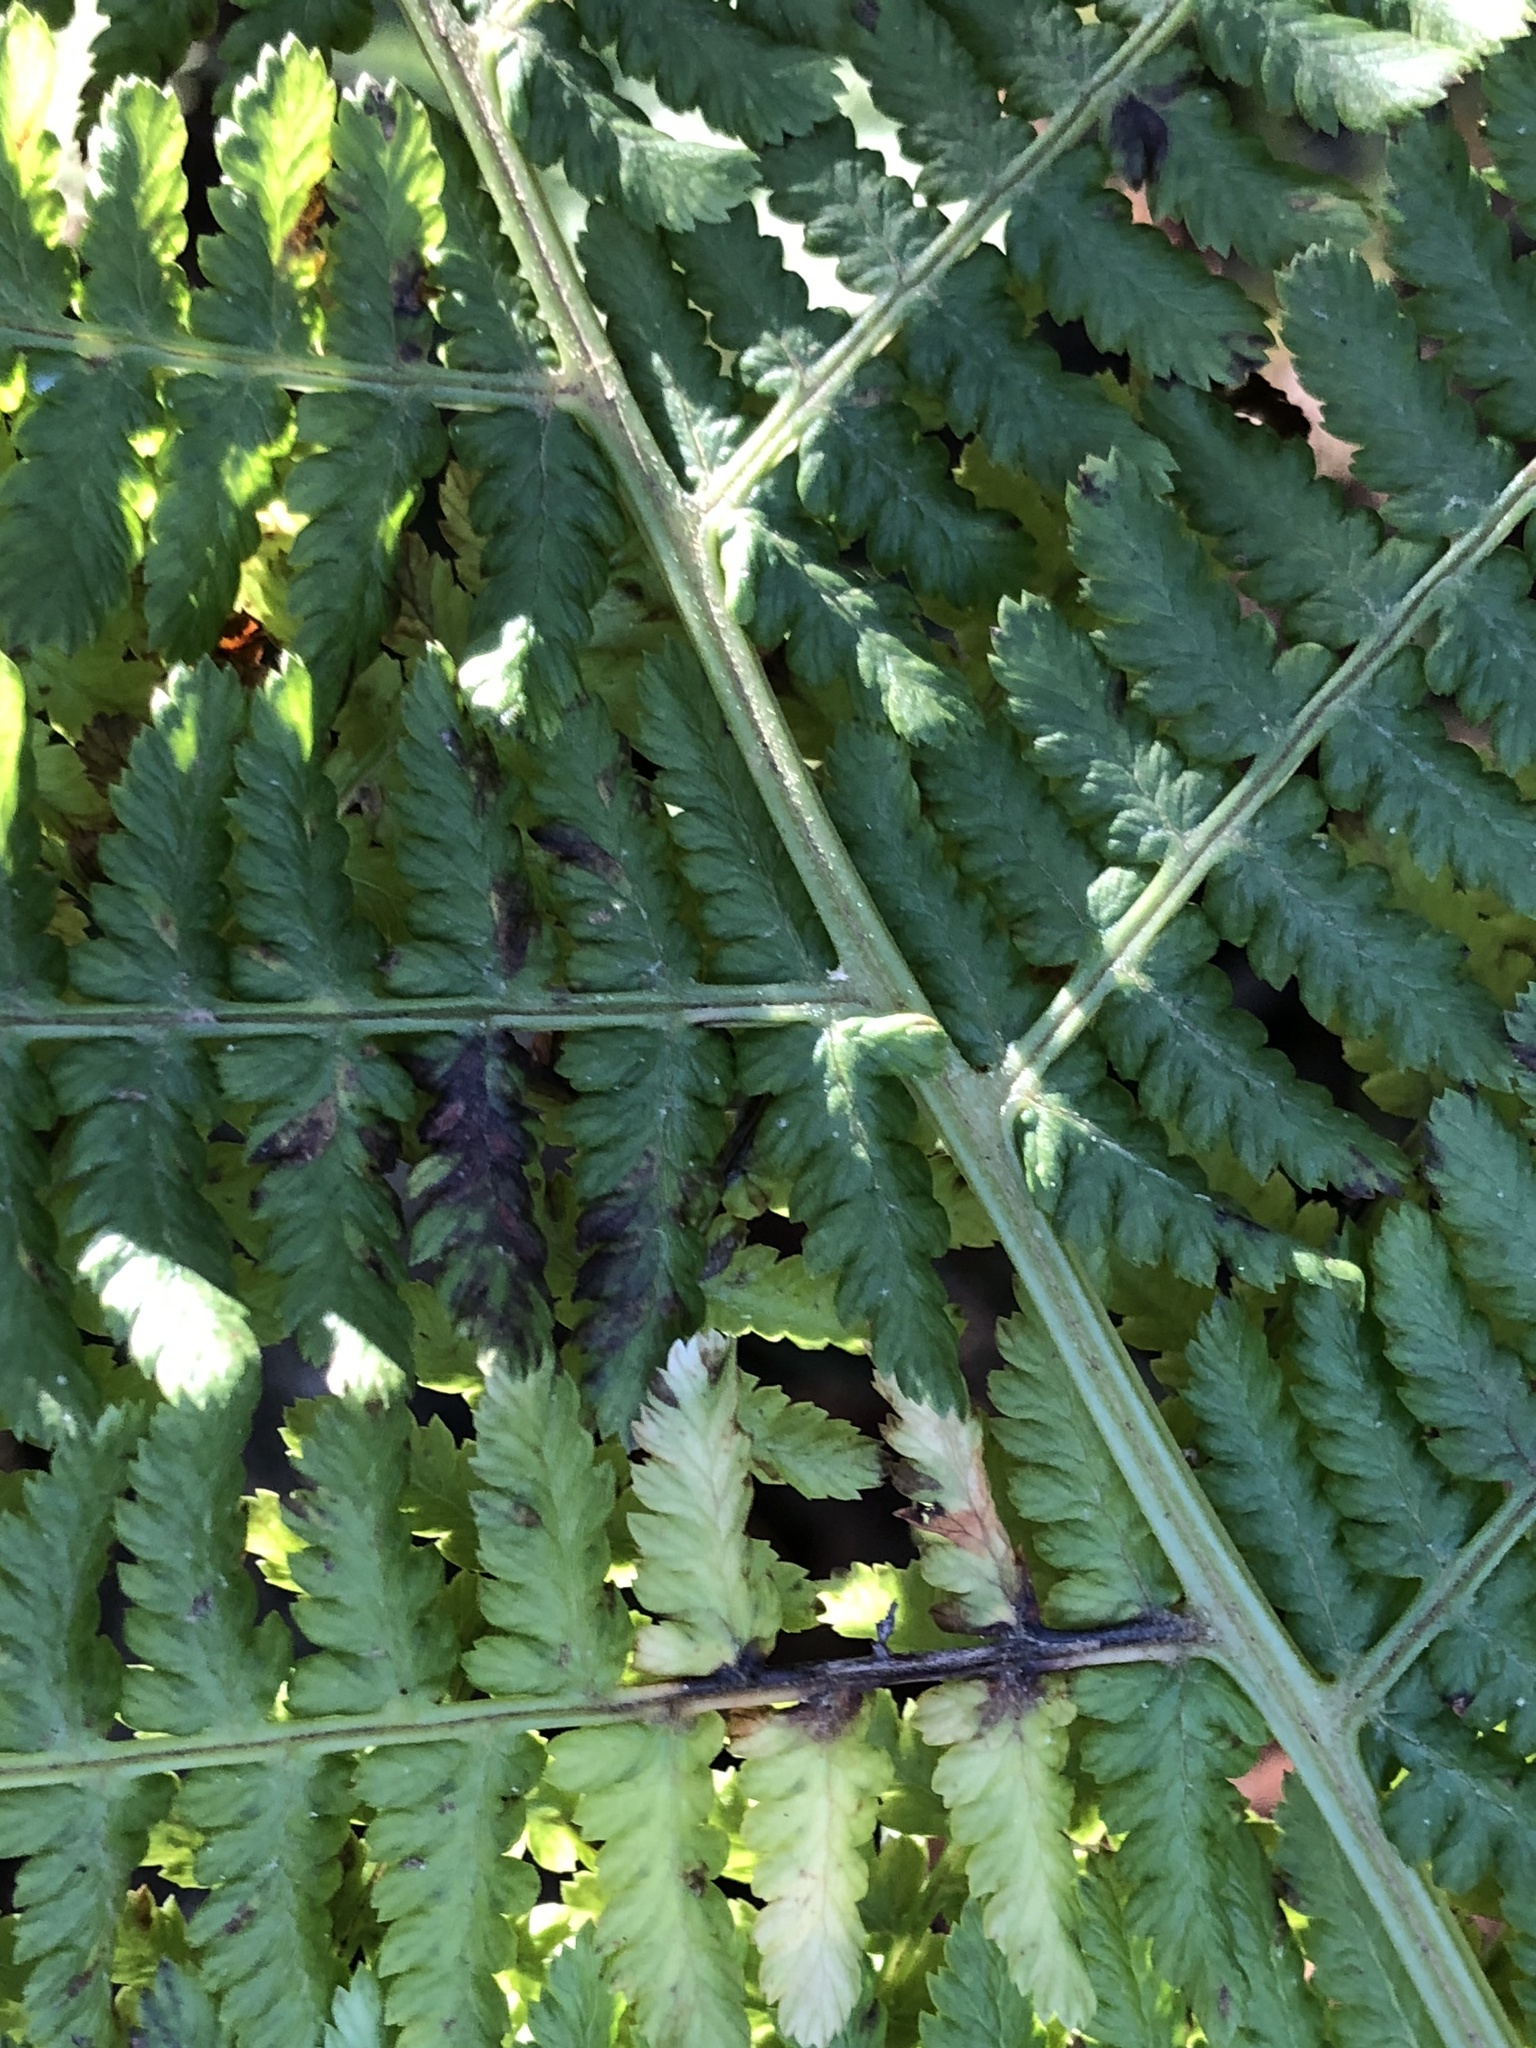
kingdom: Plantae
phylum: Tracheophyta
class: Polypodiopsida
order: Polypodiales
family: Athyriaceae
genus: Athyrium
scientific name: Athyrium filix-femina
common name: Lady fern
